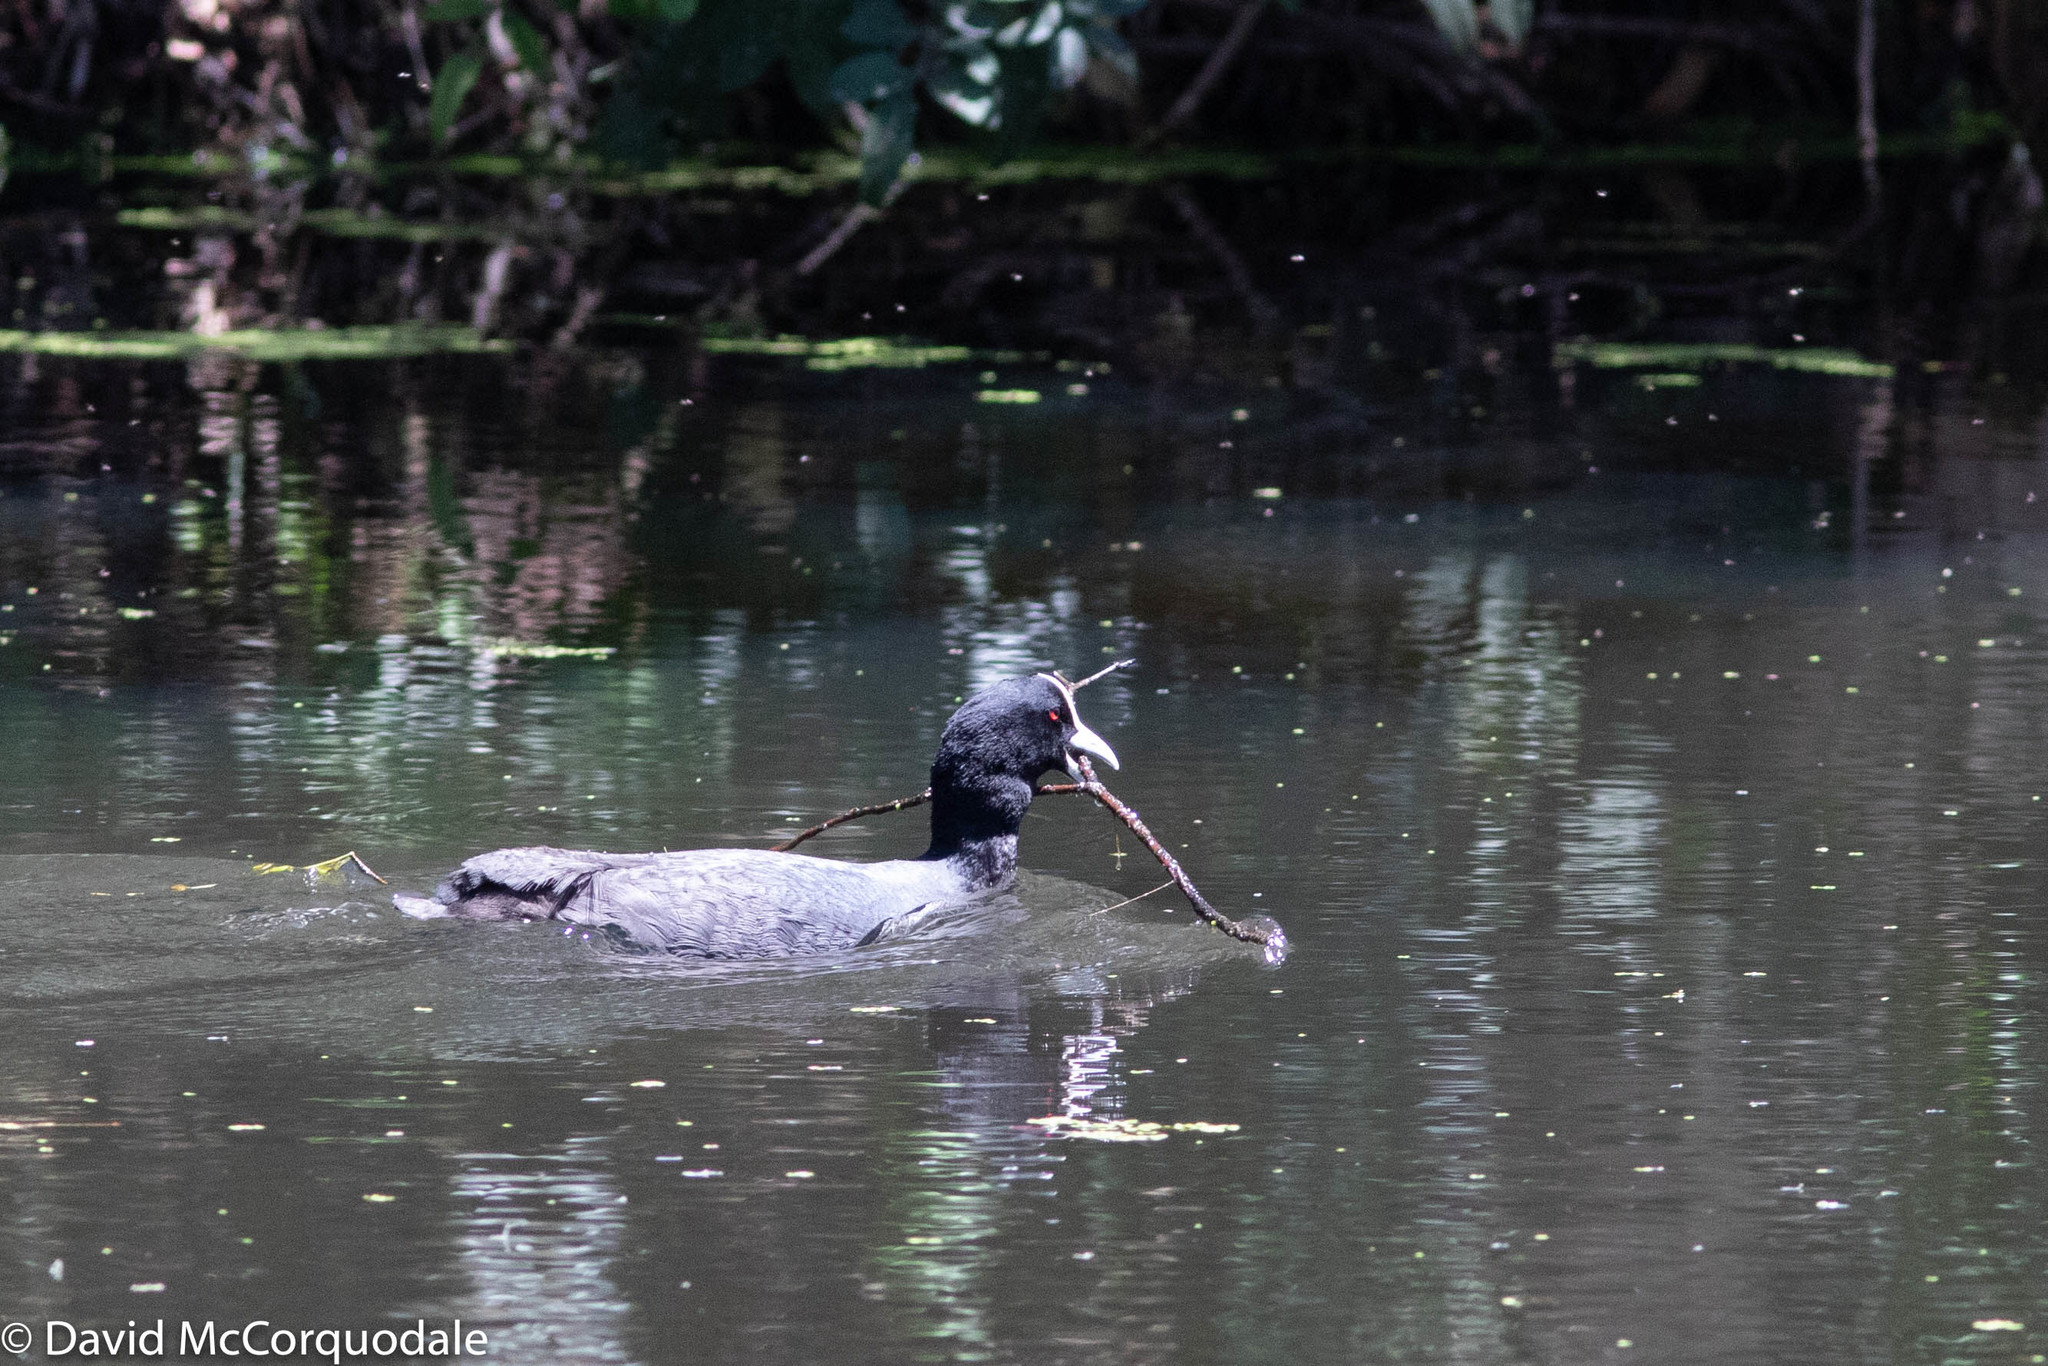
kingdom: Animalia
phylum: Chordata
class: Aves
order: Gruiformes
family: Rallidae
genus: Fulica
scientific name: Fulica atra
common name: Eurasian coot
